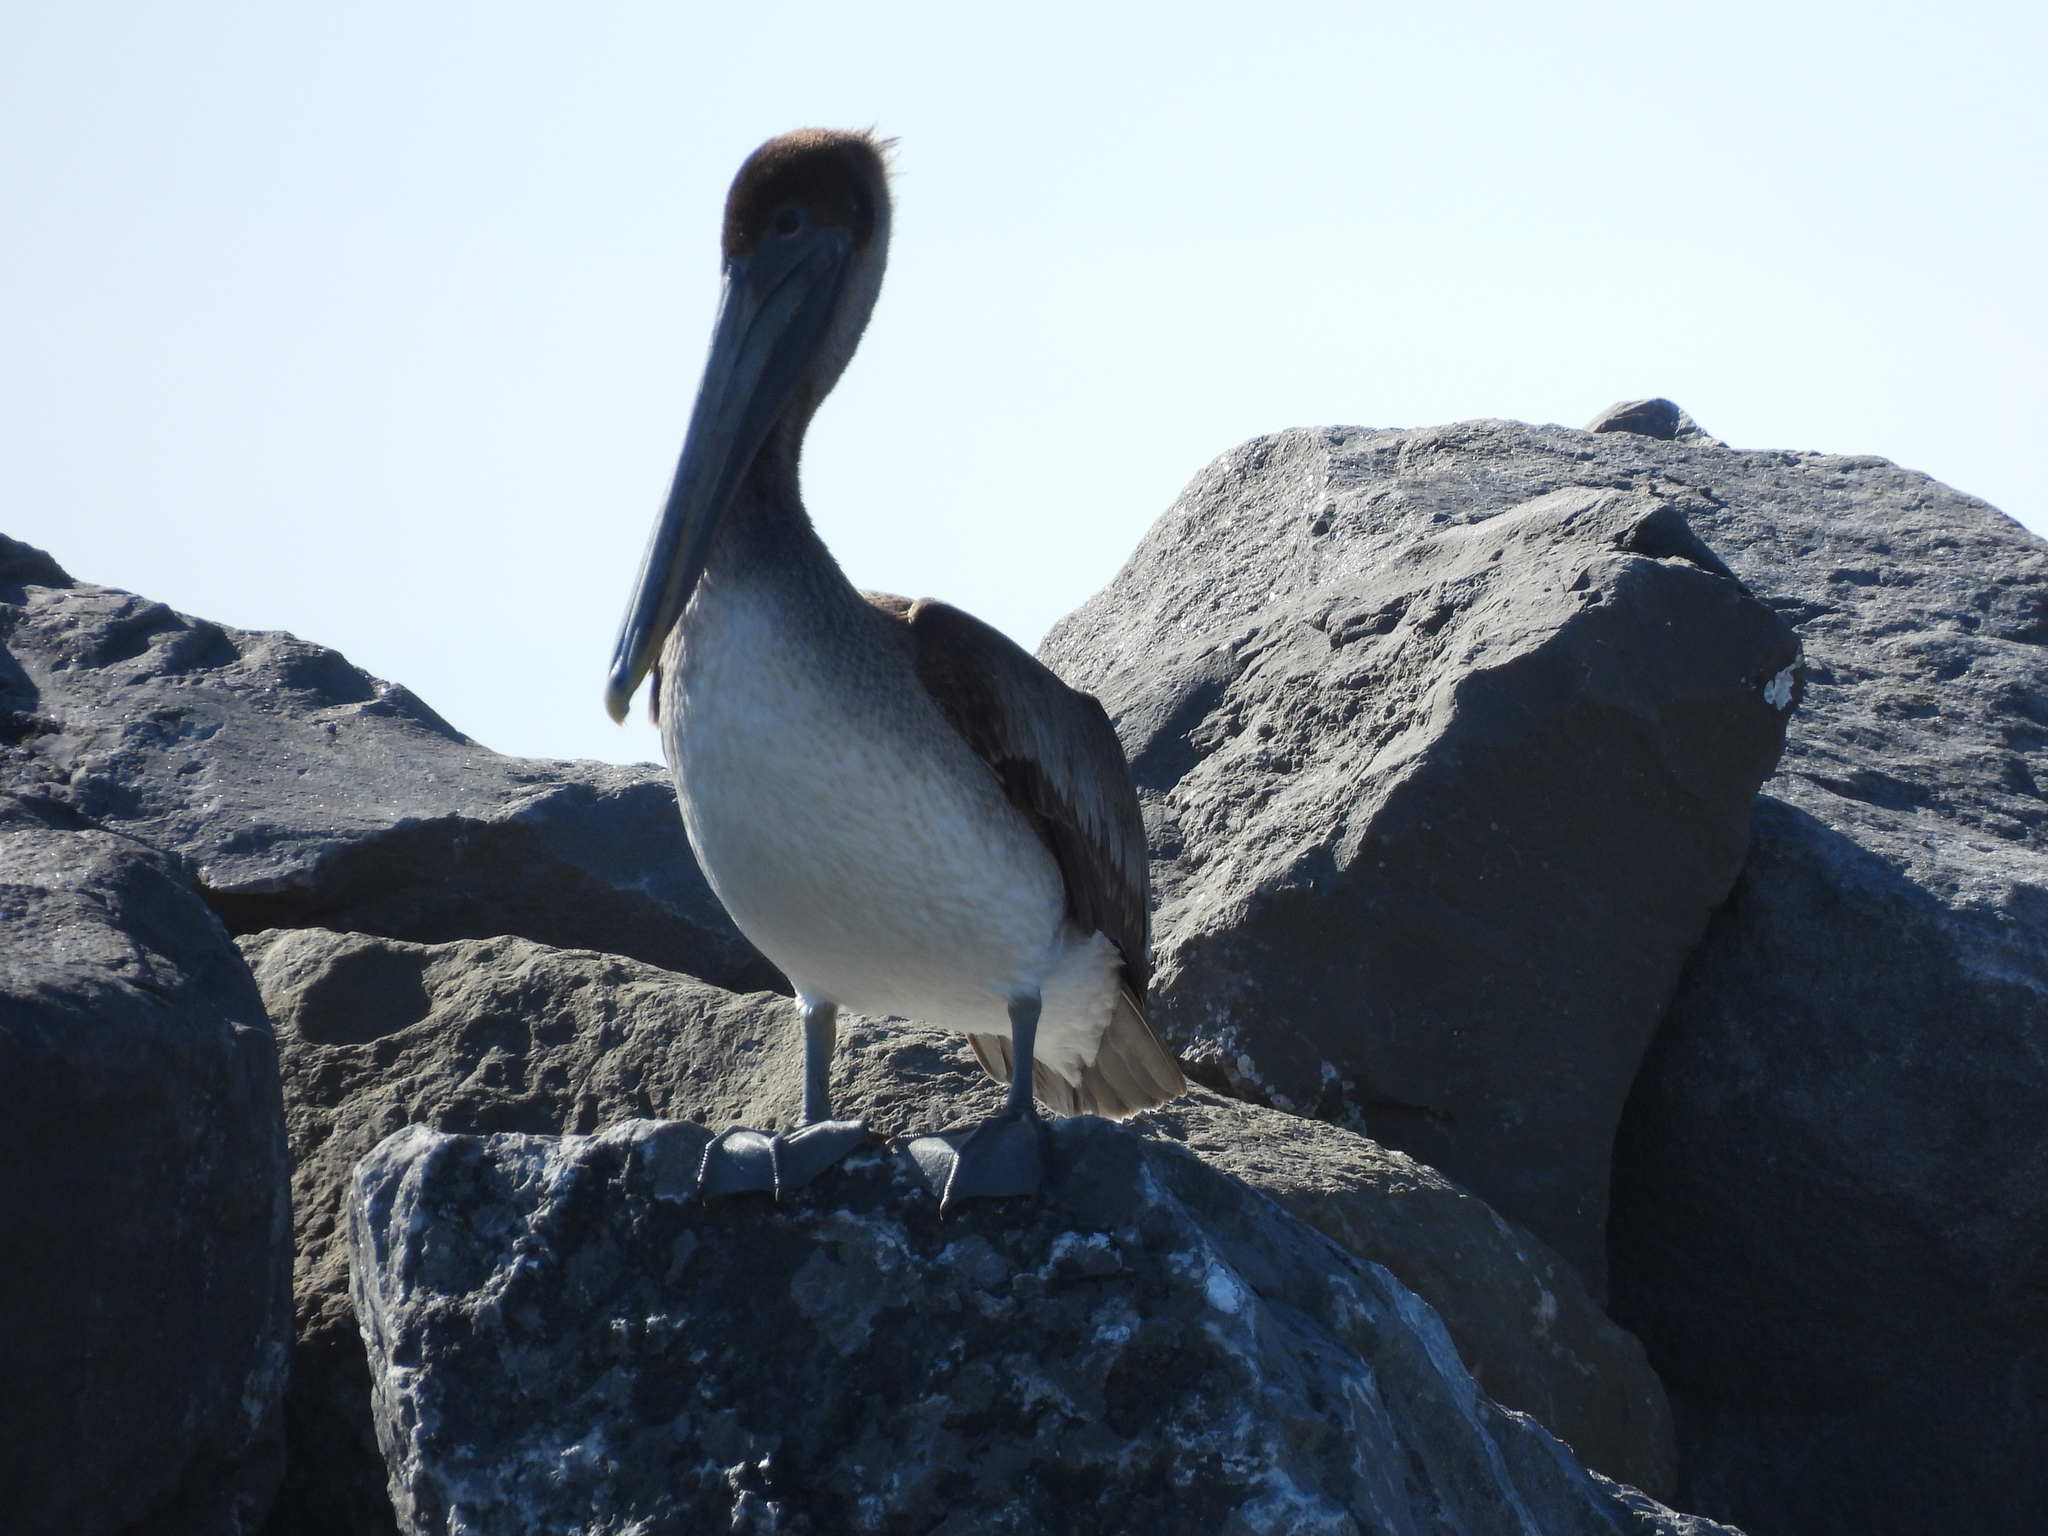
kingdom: Animalia
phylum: Chordata
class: Aves
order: Pelecaniformes
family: Pelecanidae
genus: Pelecanus
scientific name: Pelecanus occidentalis
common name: Brown pelican
